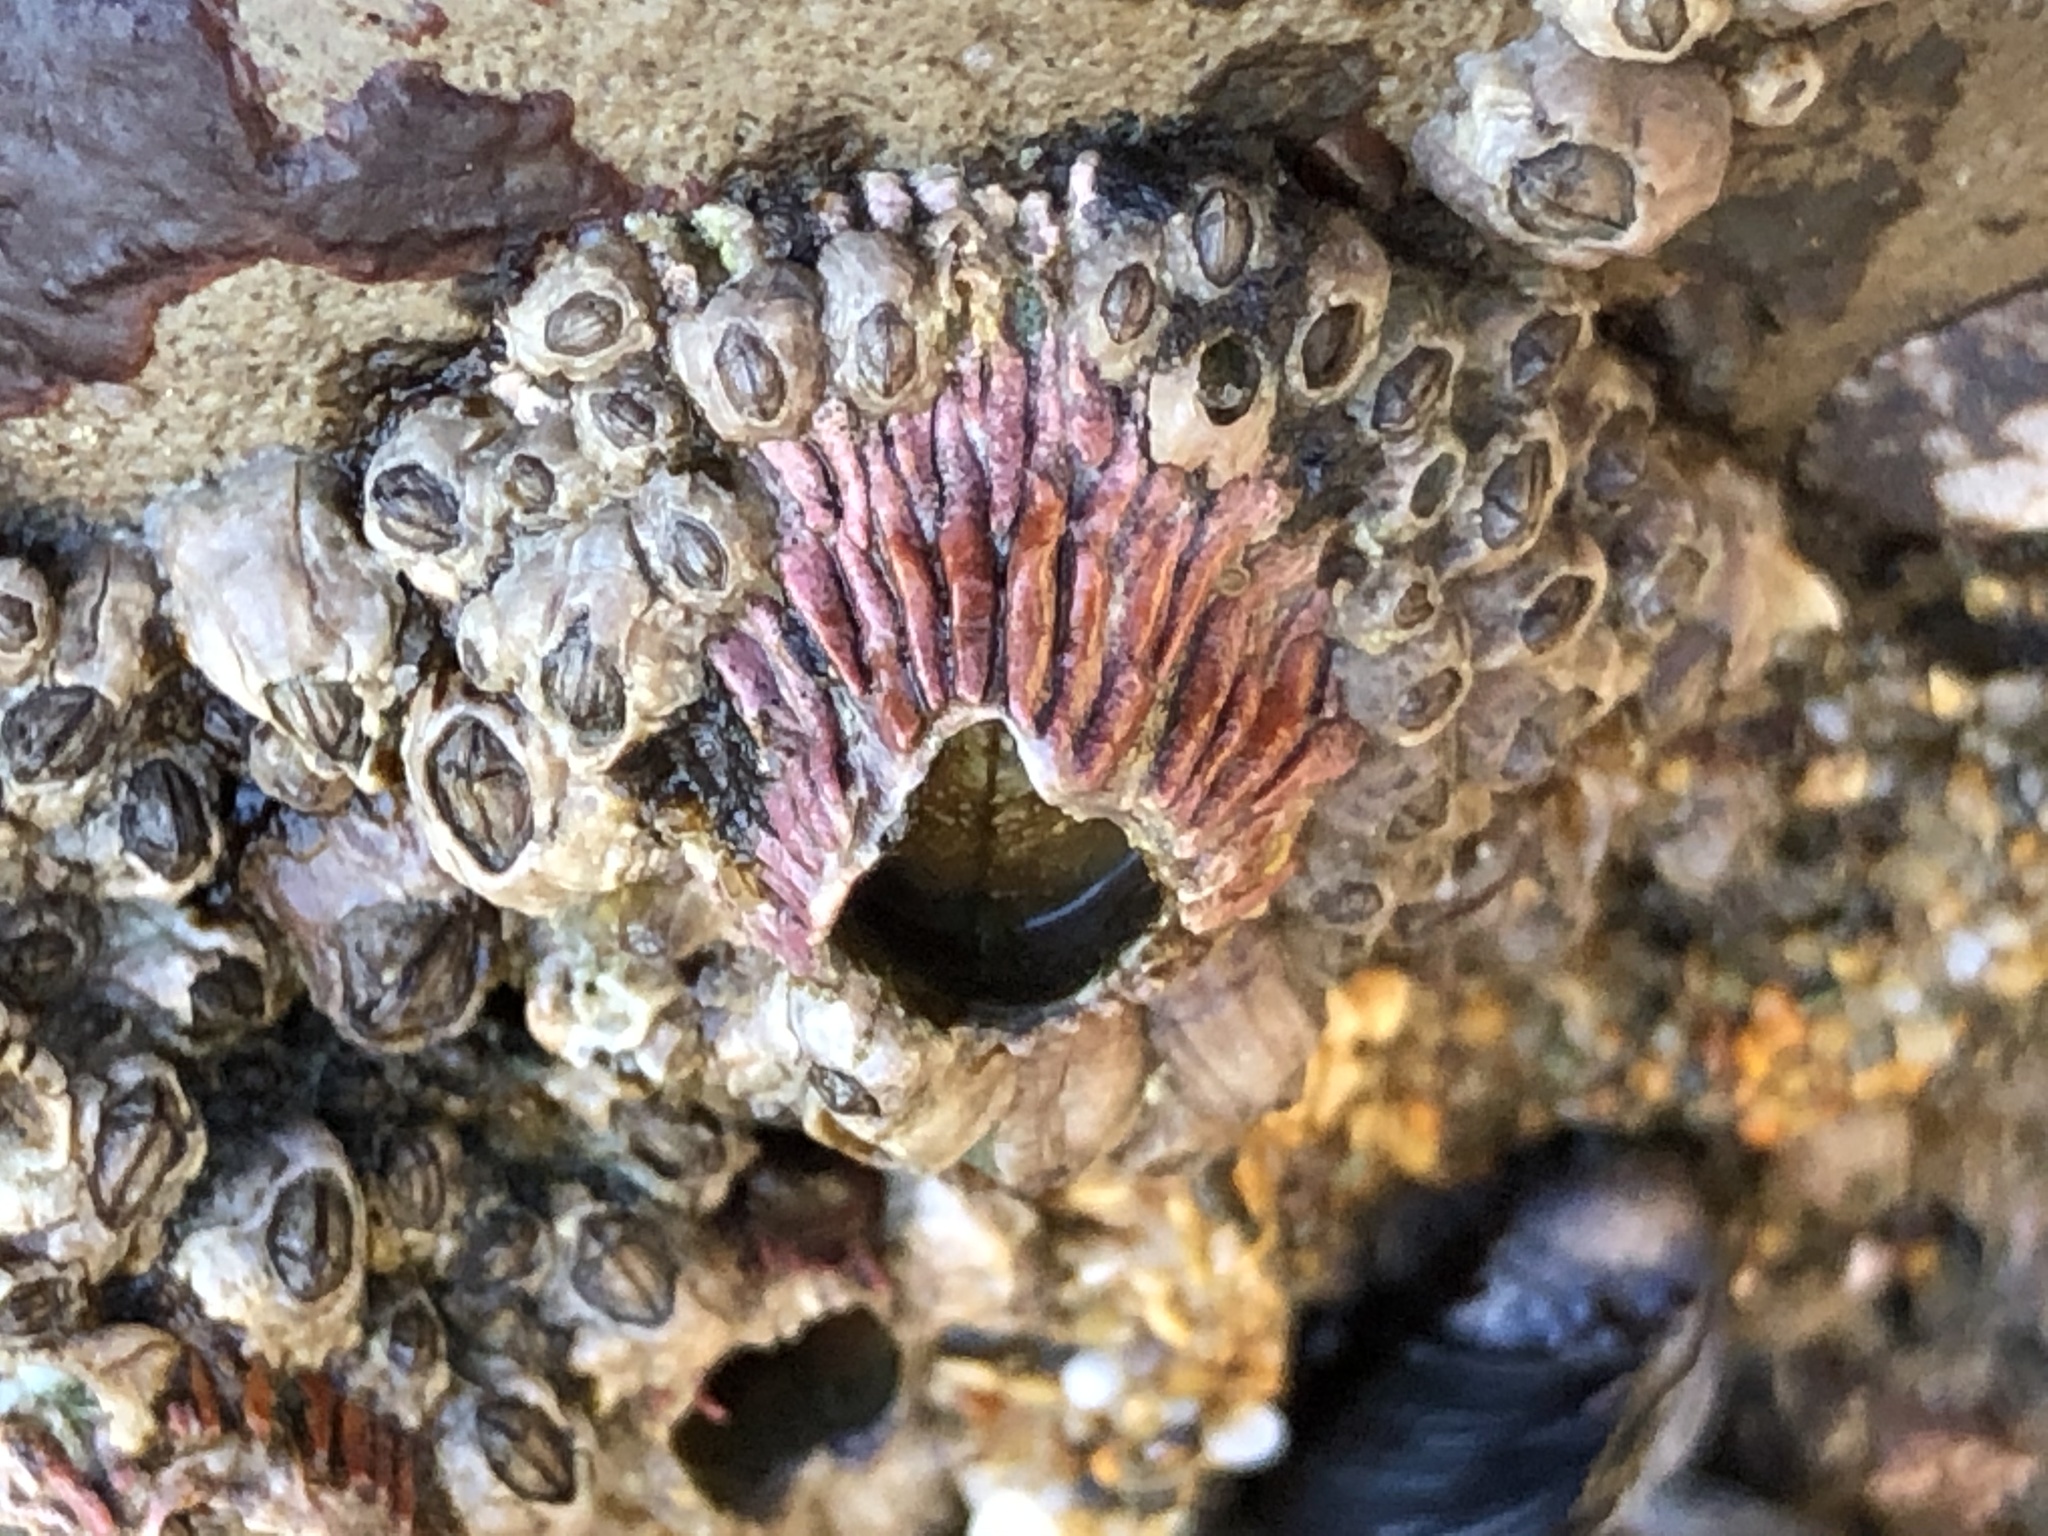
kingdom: Animalia
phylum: Arthropoda
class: Maxillopoda
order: Sessilia
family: Tetraclitidae
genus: Tetraclita
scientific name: Tetraclita rubescens
